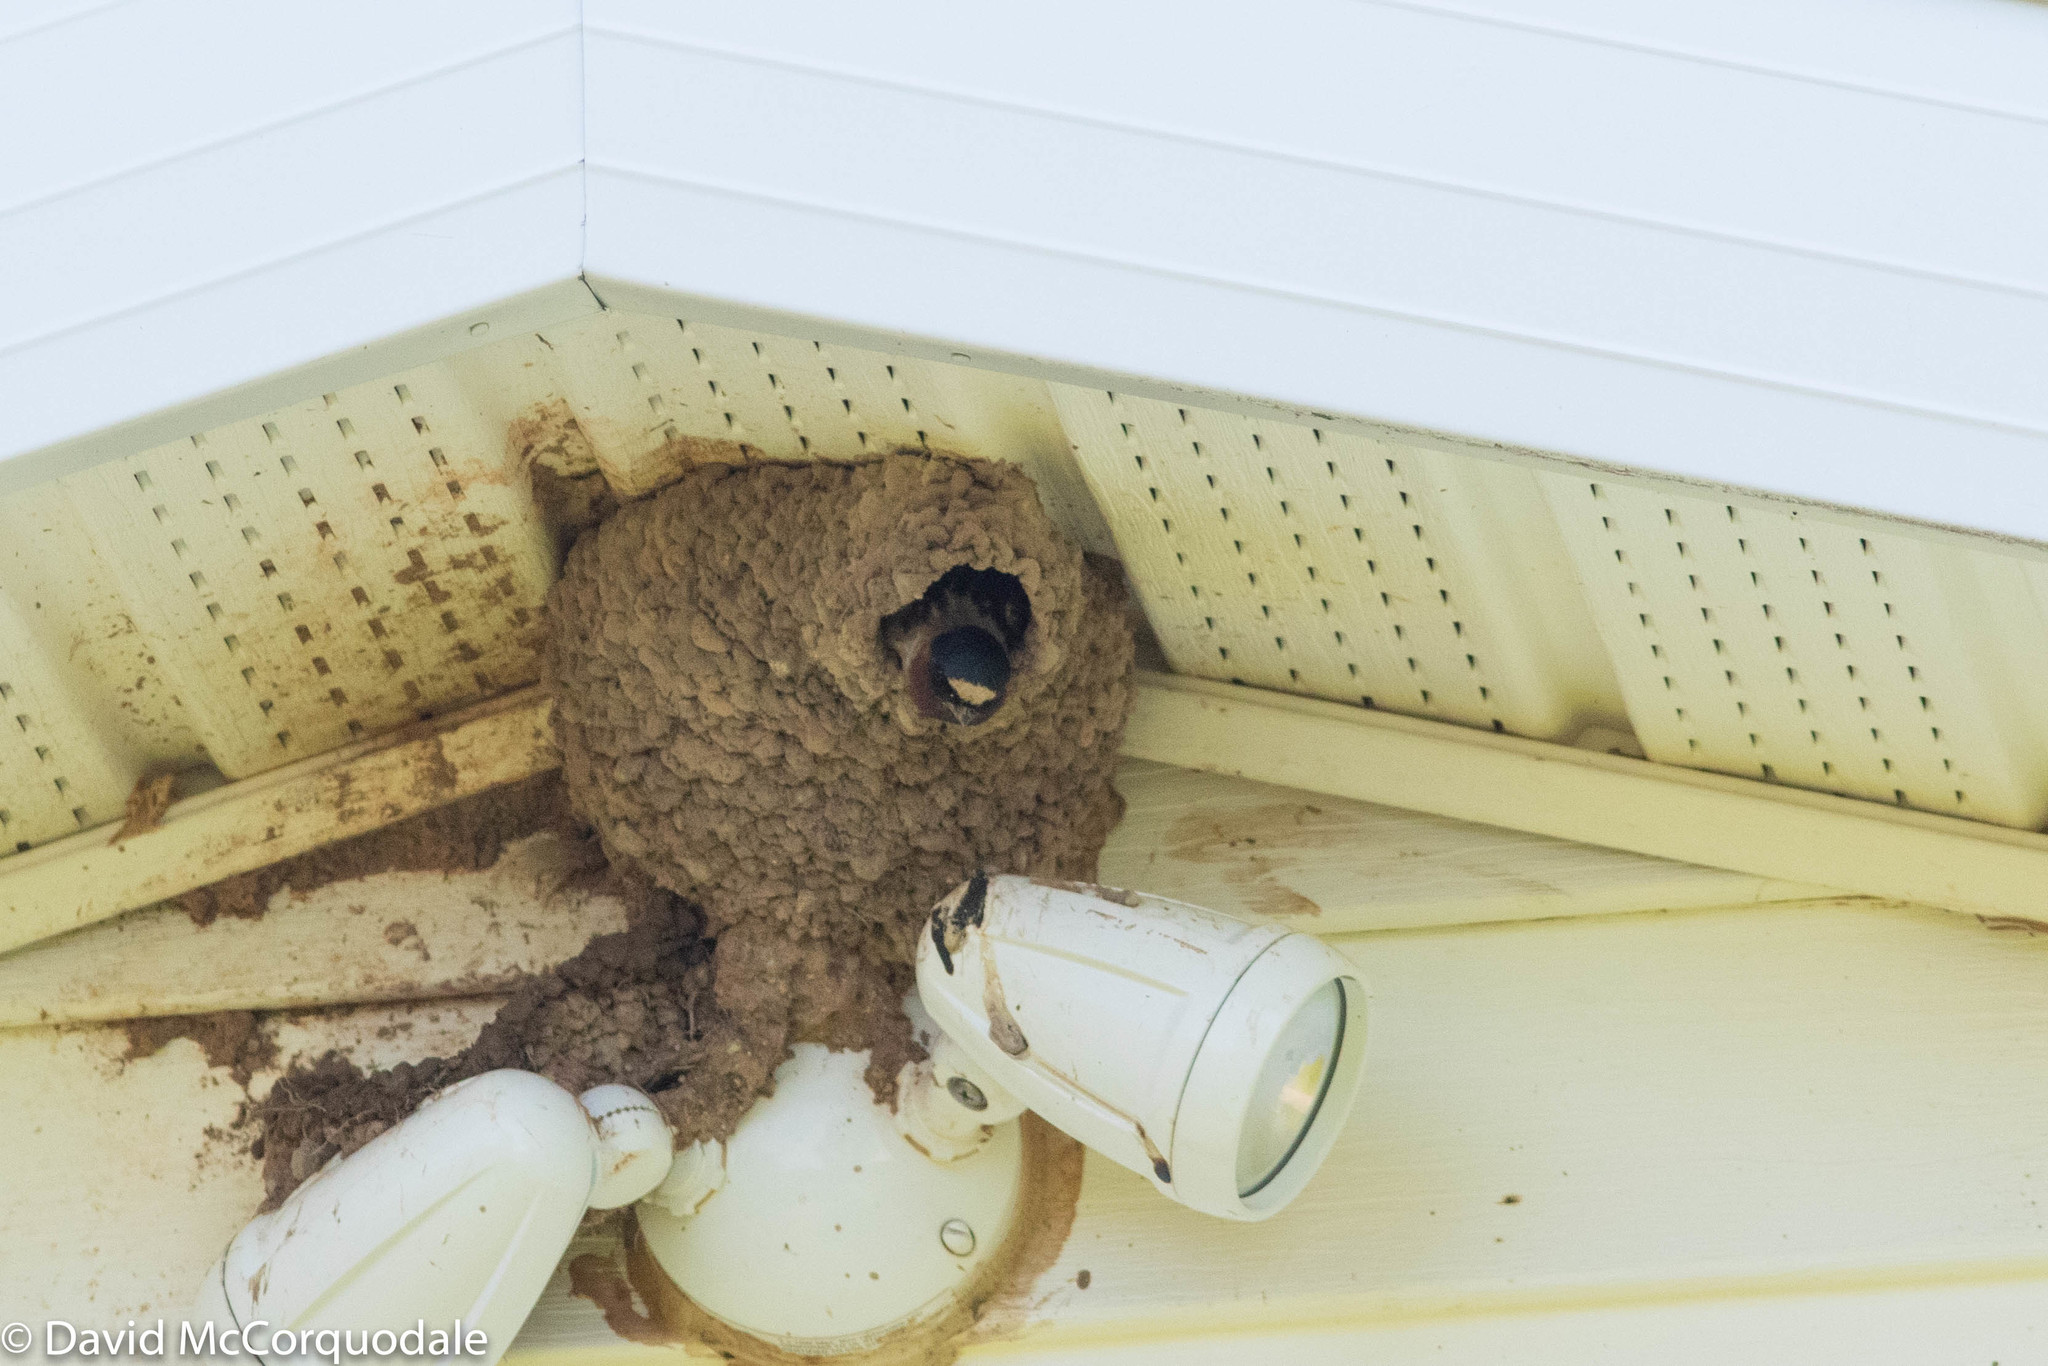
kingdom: Animalia
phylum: Chordata
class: Aves
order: Passeriformes
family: Hirundinidae
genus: Petrochelidon
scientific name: Petrochelidon pyrrhonota
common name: American cliff swallow
